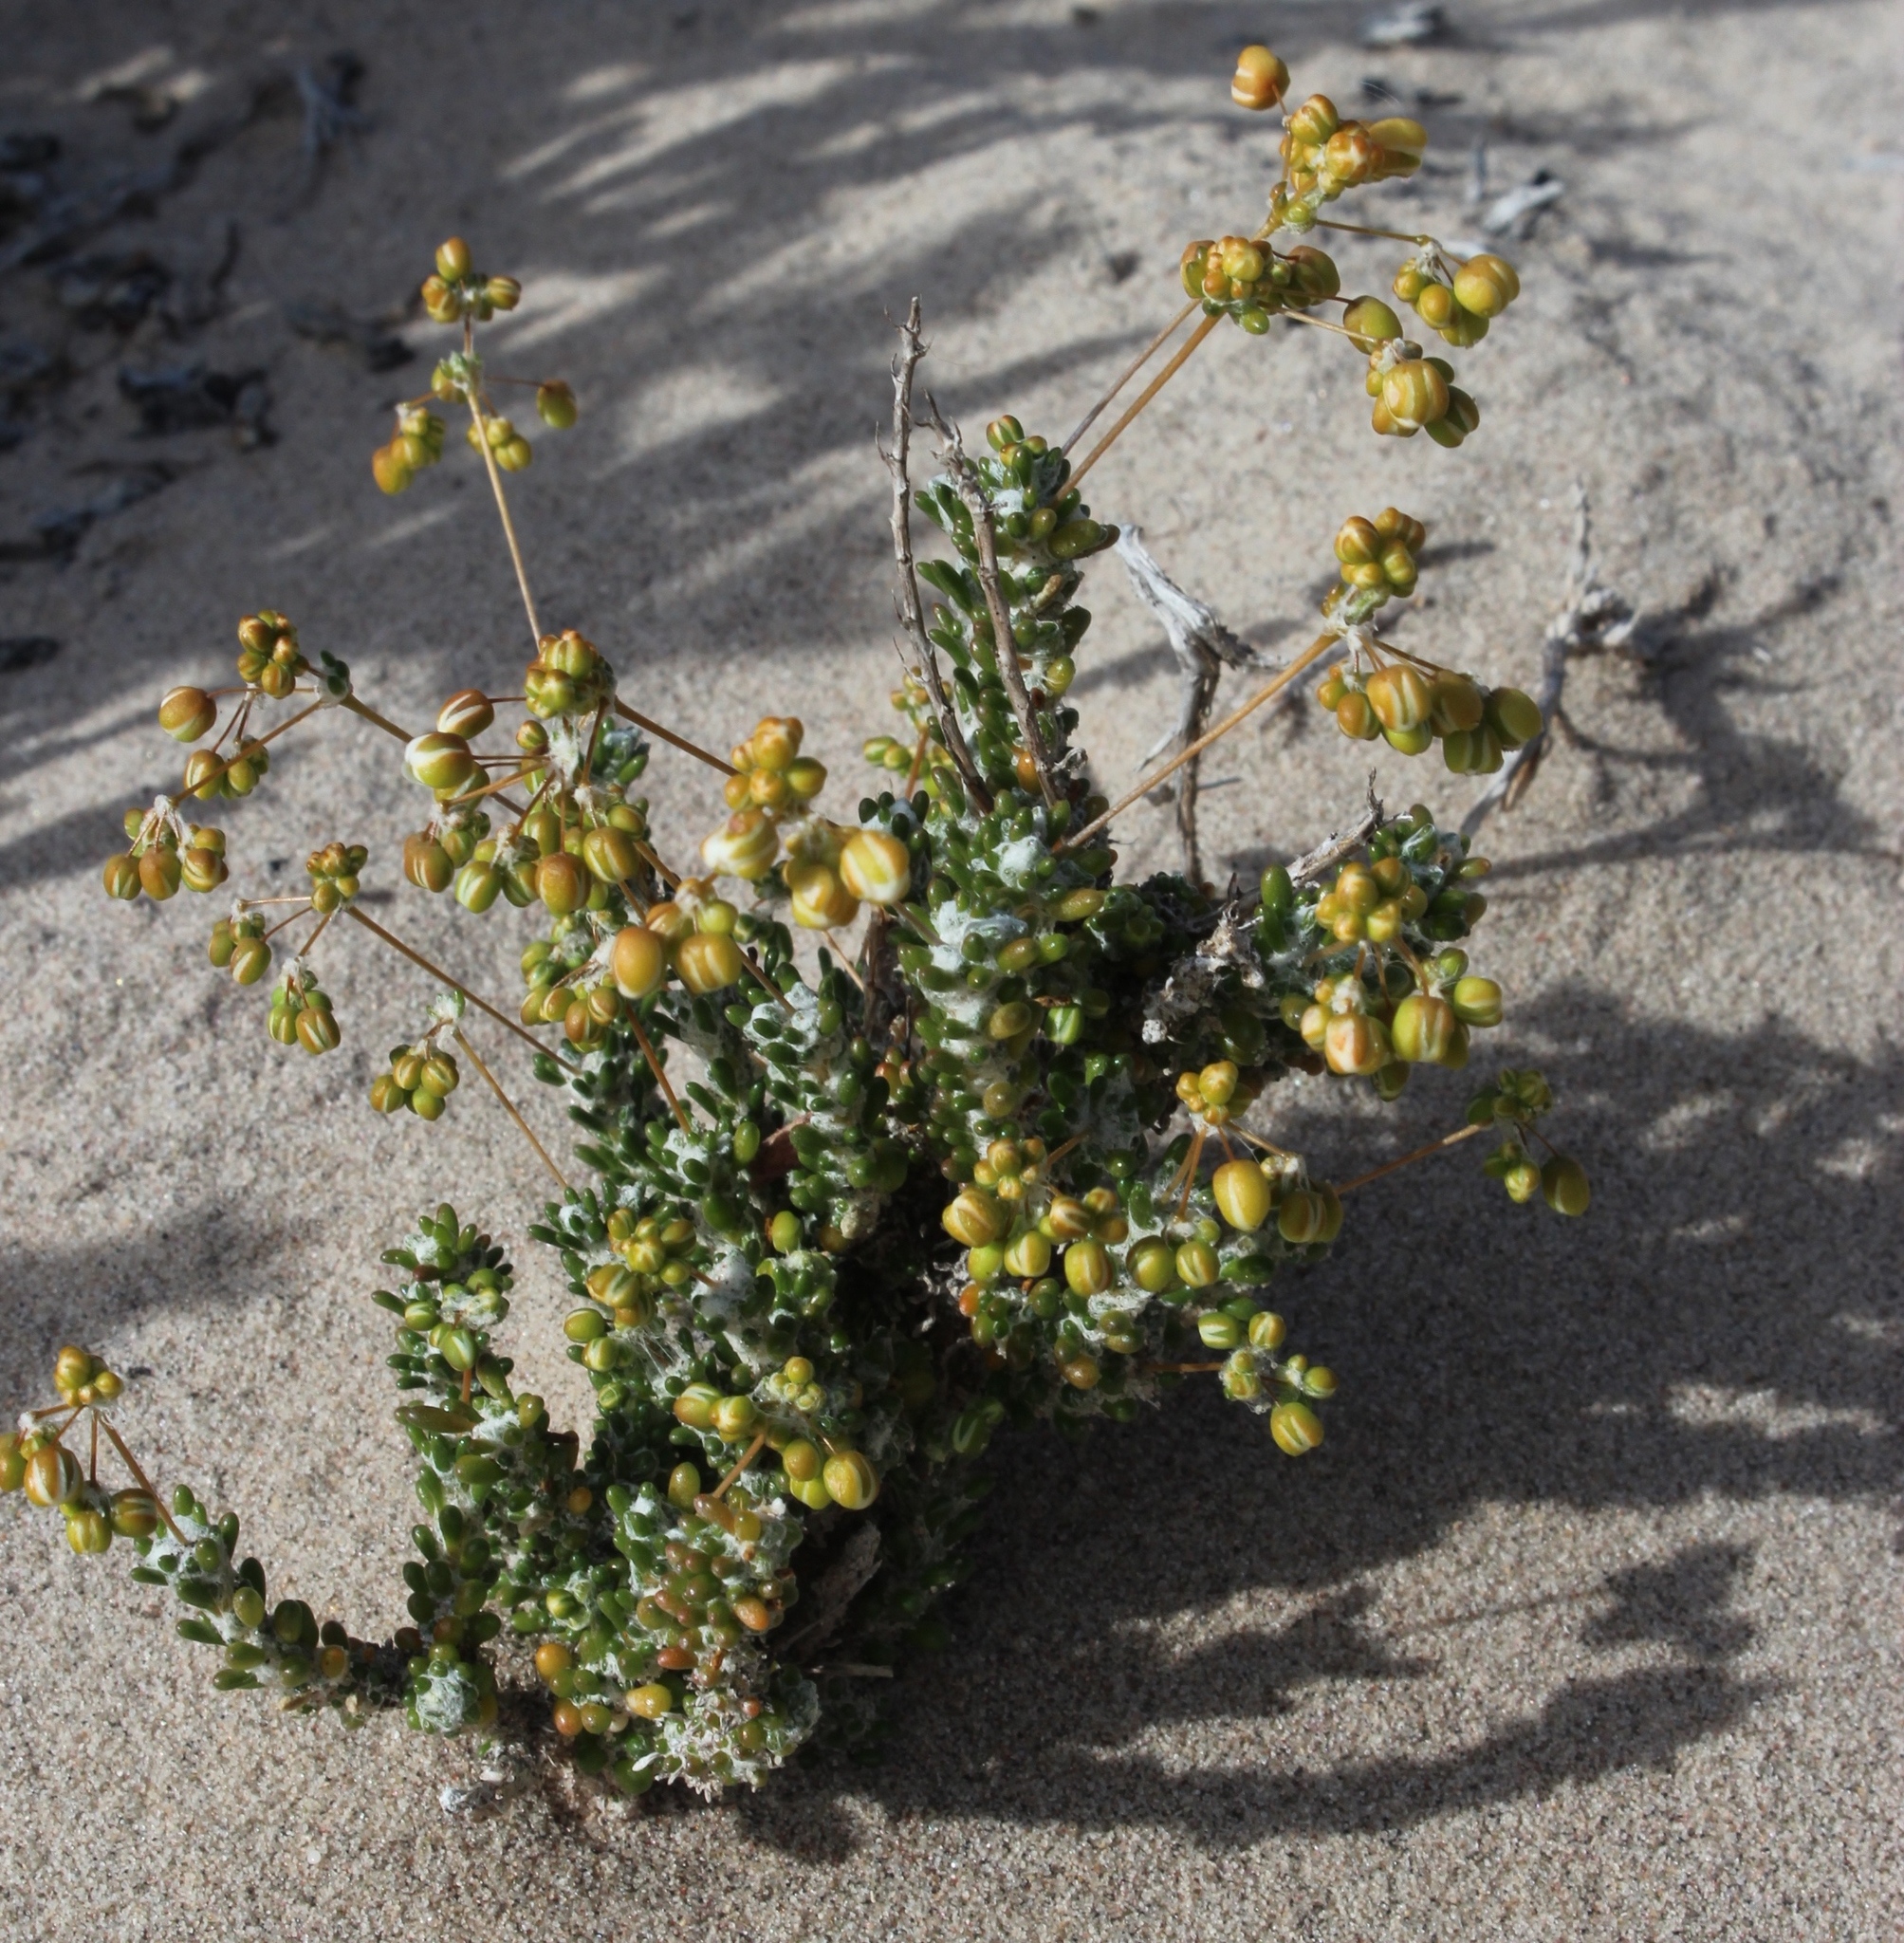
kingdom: Plantae
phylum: Tracheophyta
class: Magnoliopsida
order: Caryophyllales
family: Molluginaceae
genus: Pharnaceum
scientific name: Pharnaceum microphyllum
